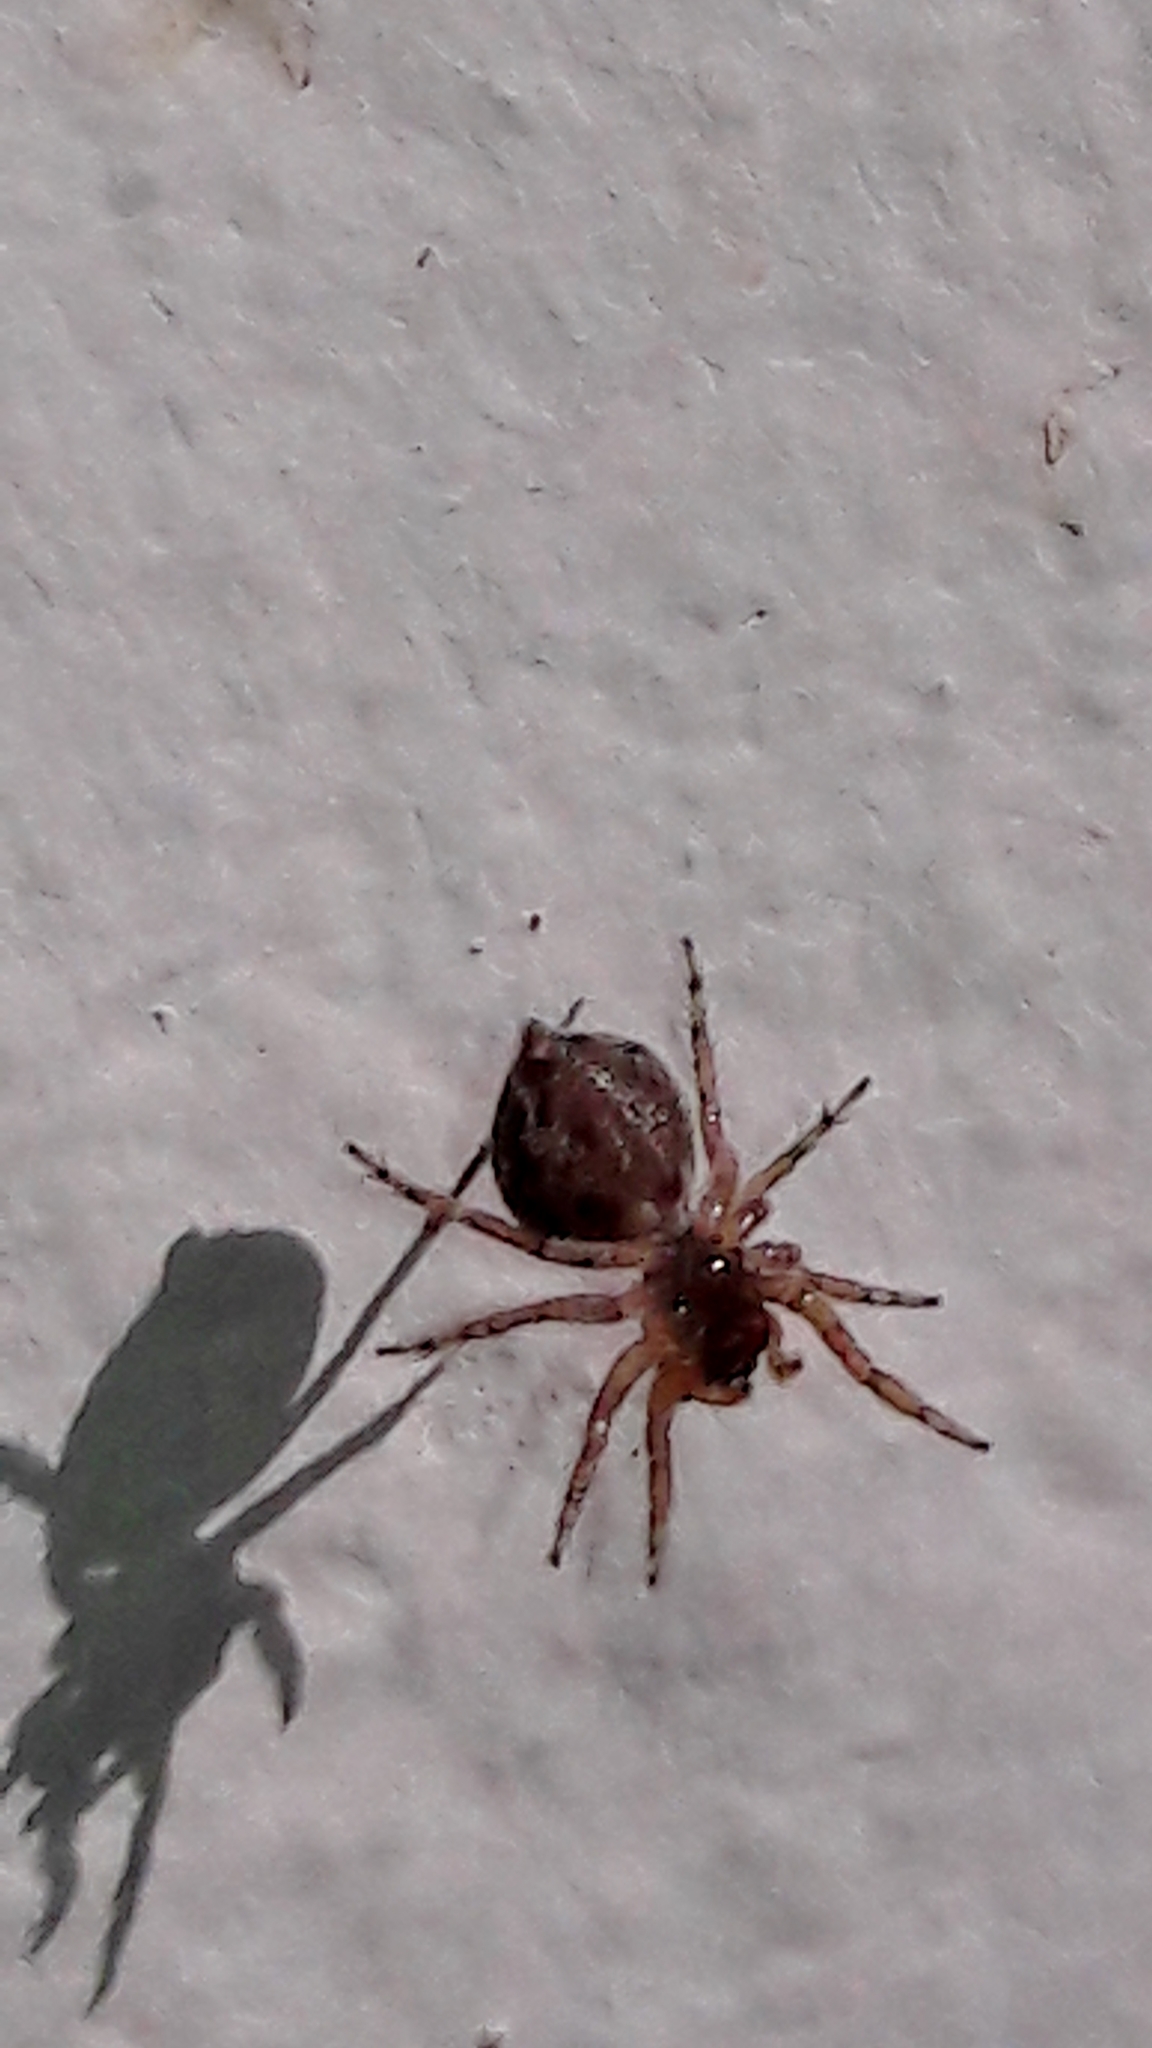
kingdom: Animalia
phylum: Arthropoda
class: Arachnida
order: Araneae
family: Salticidae
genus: Marma
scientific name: Marma nigritarsis
